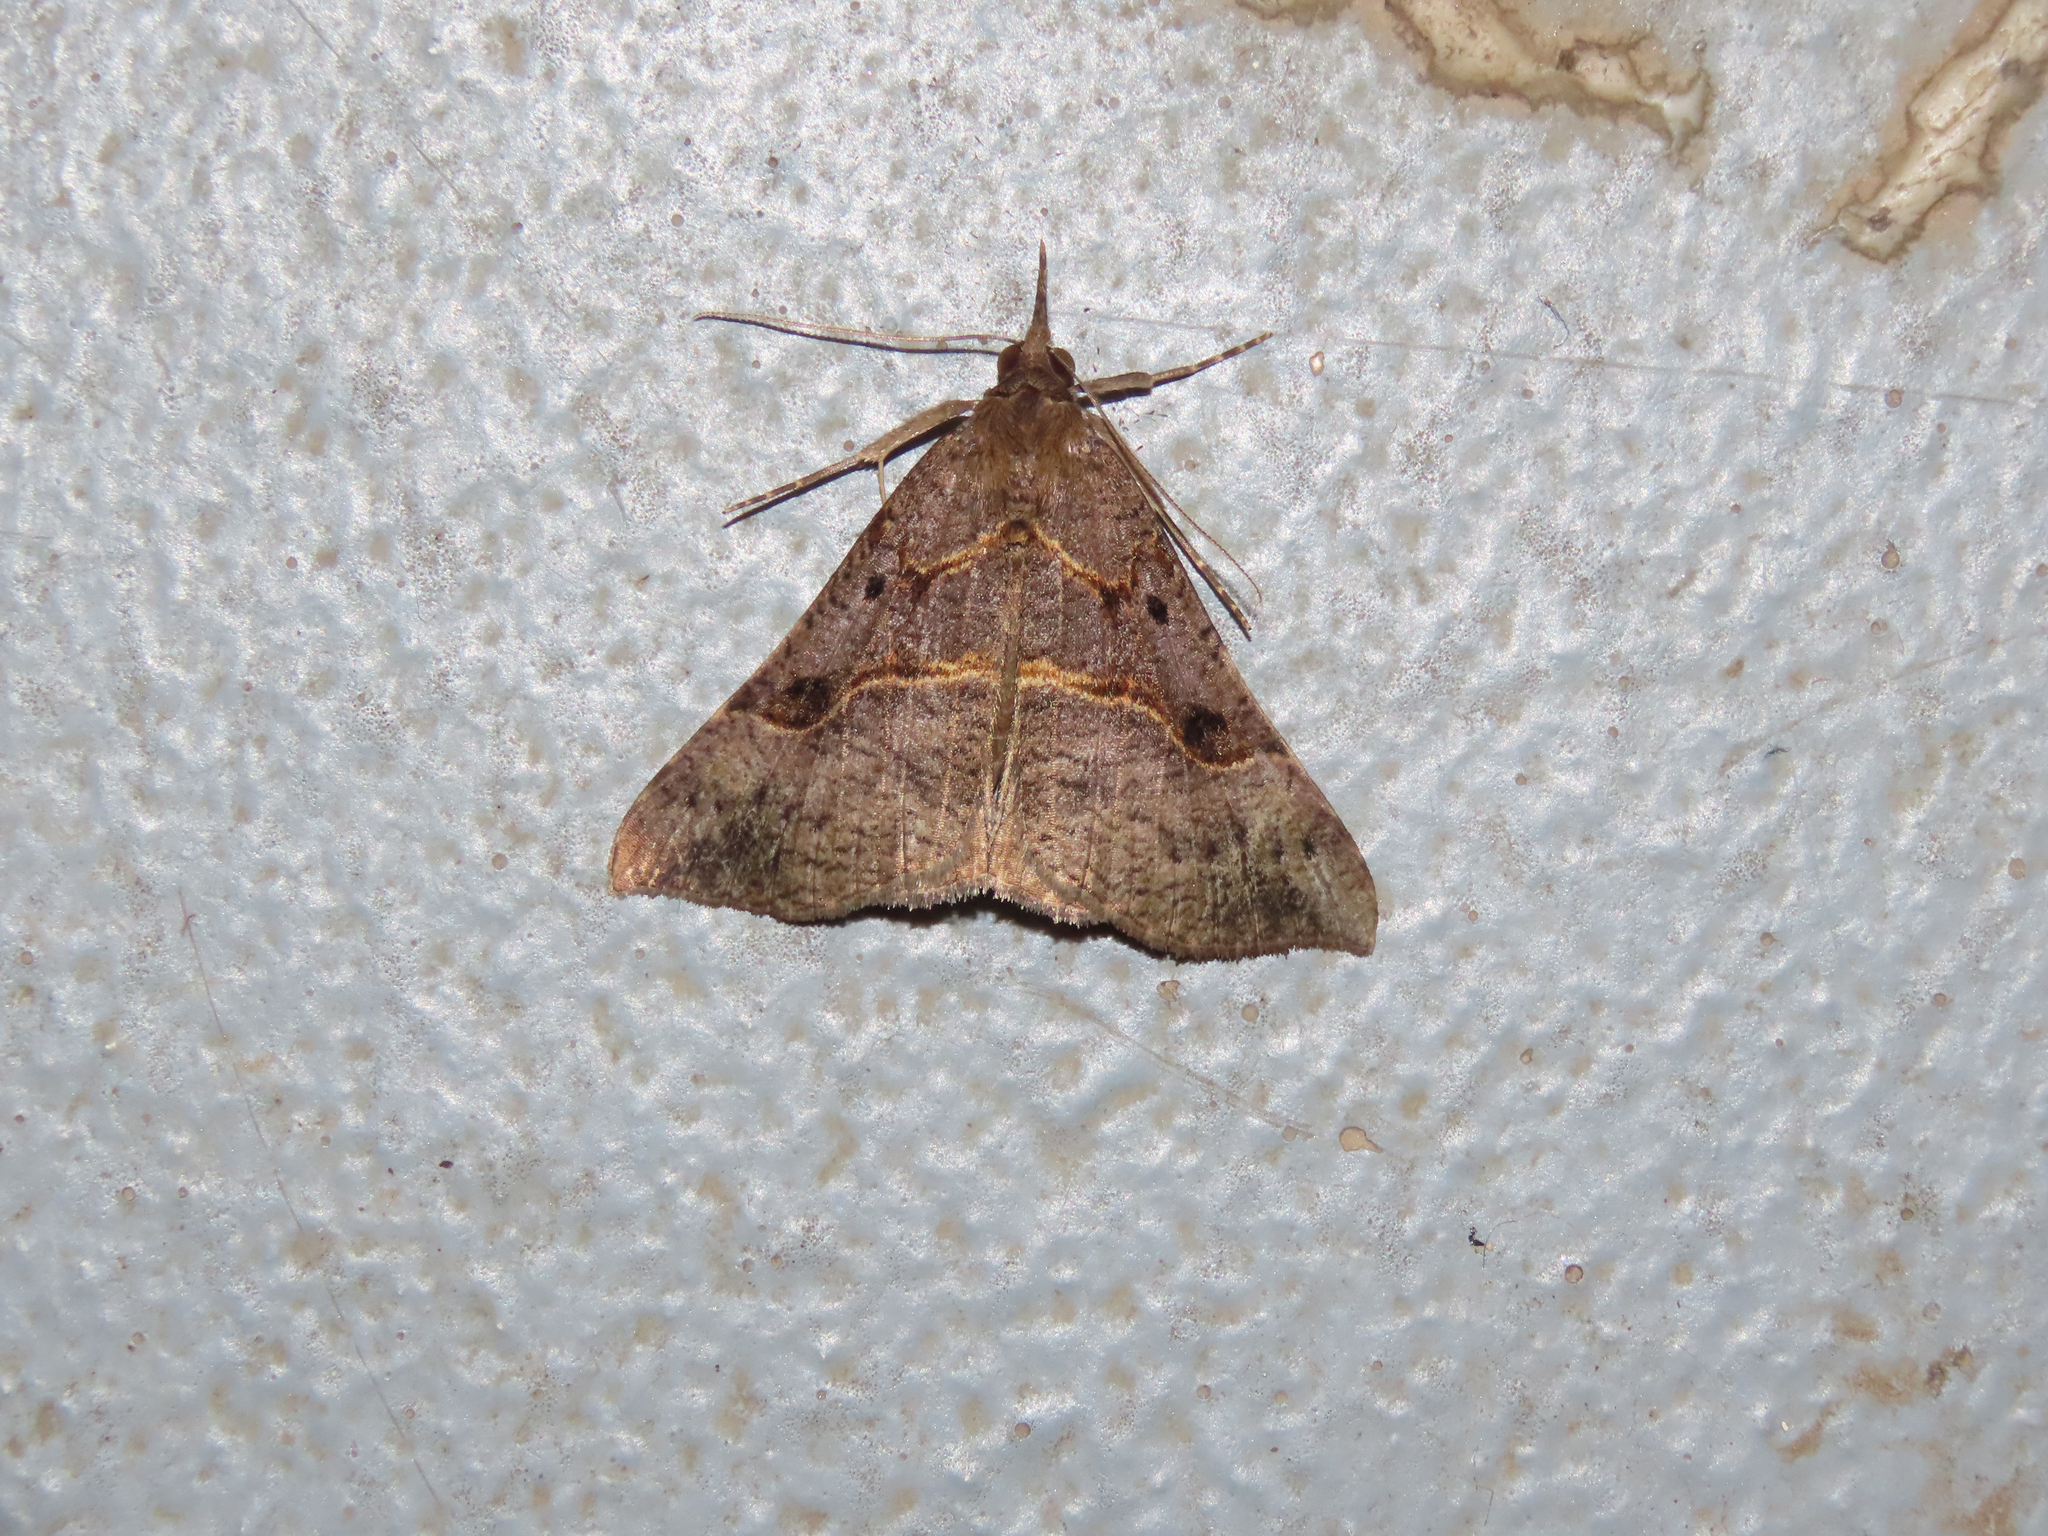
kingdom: Animalia
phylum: Arthropoda
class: Insecta
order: Lepidoptera
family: Erebidae
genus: Hypena
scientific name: Hypena edictalis
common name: Large snout
